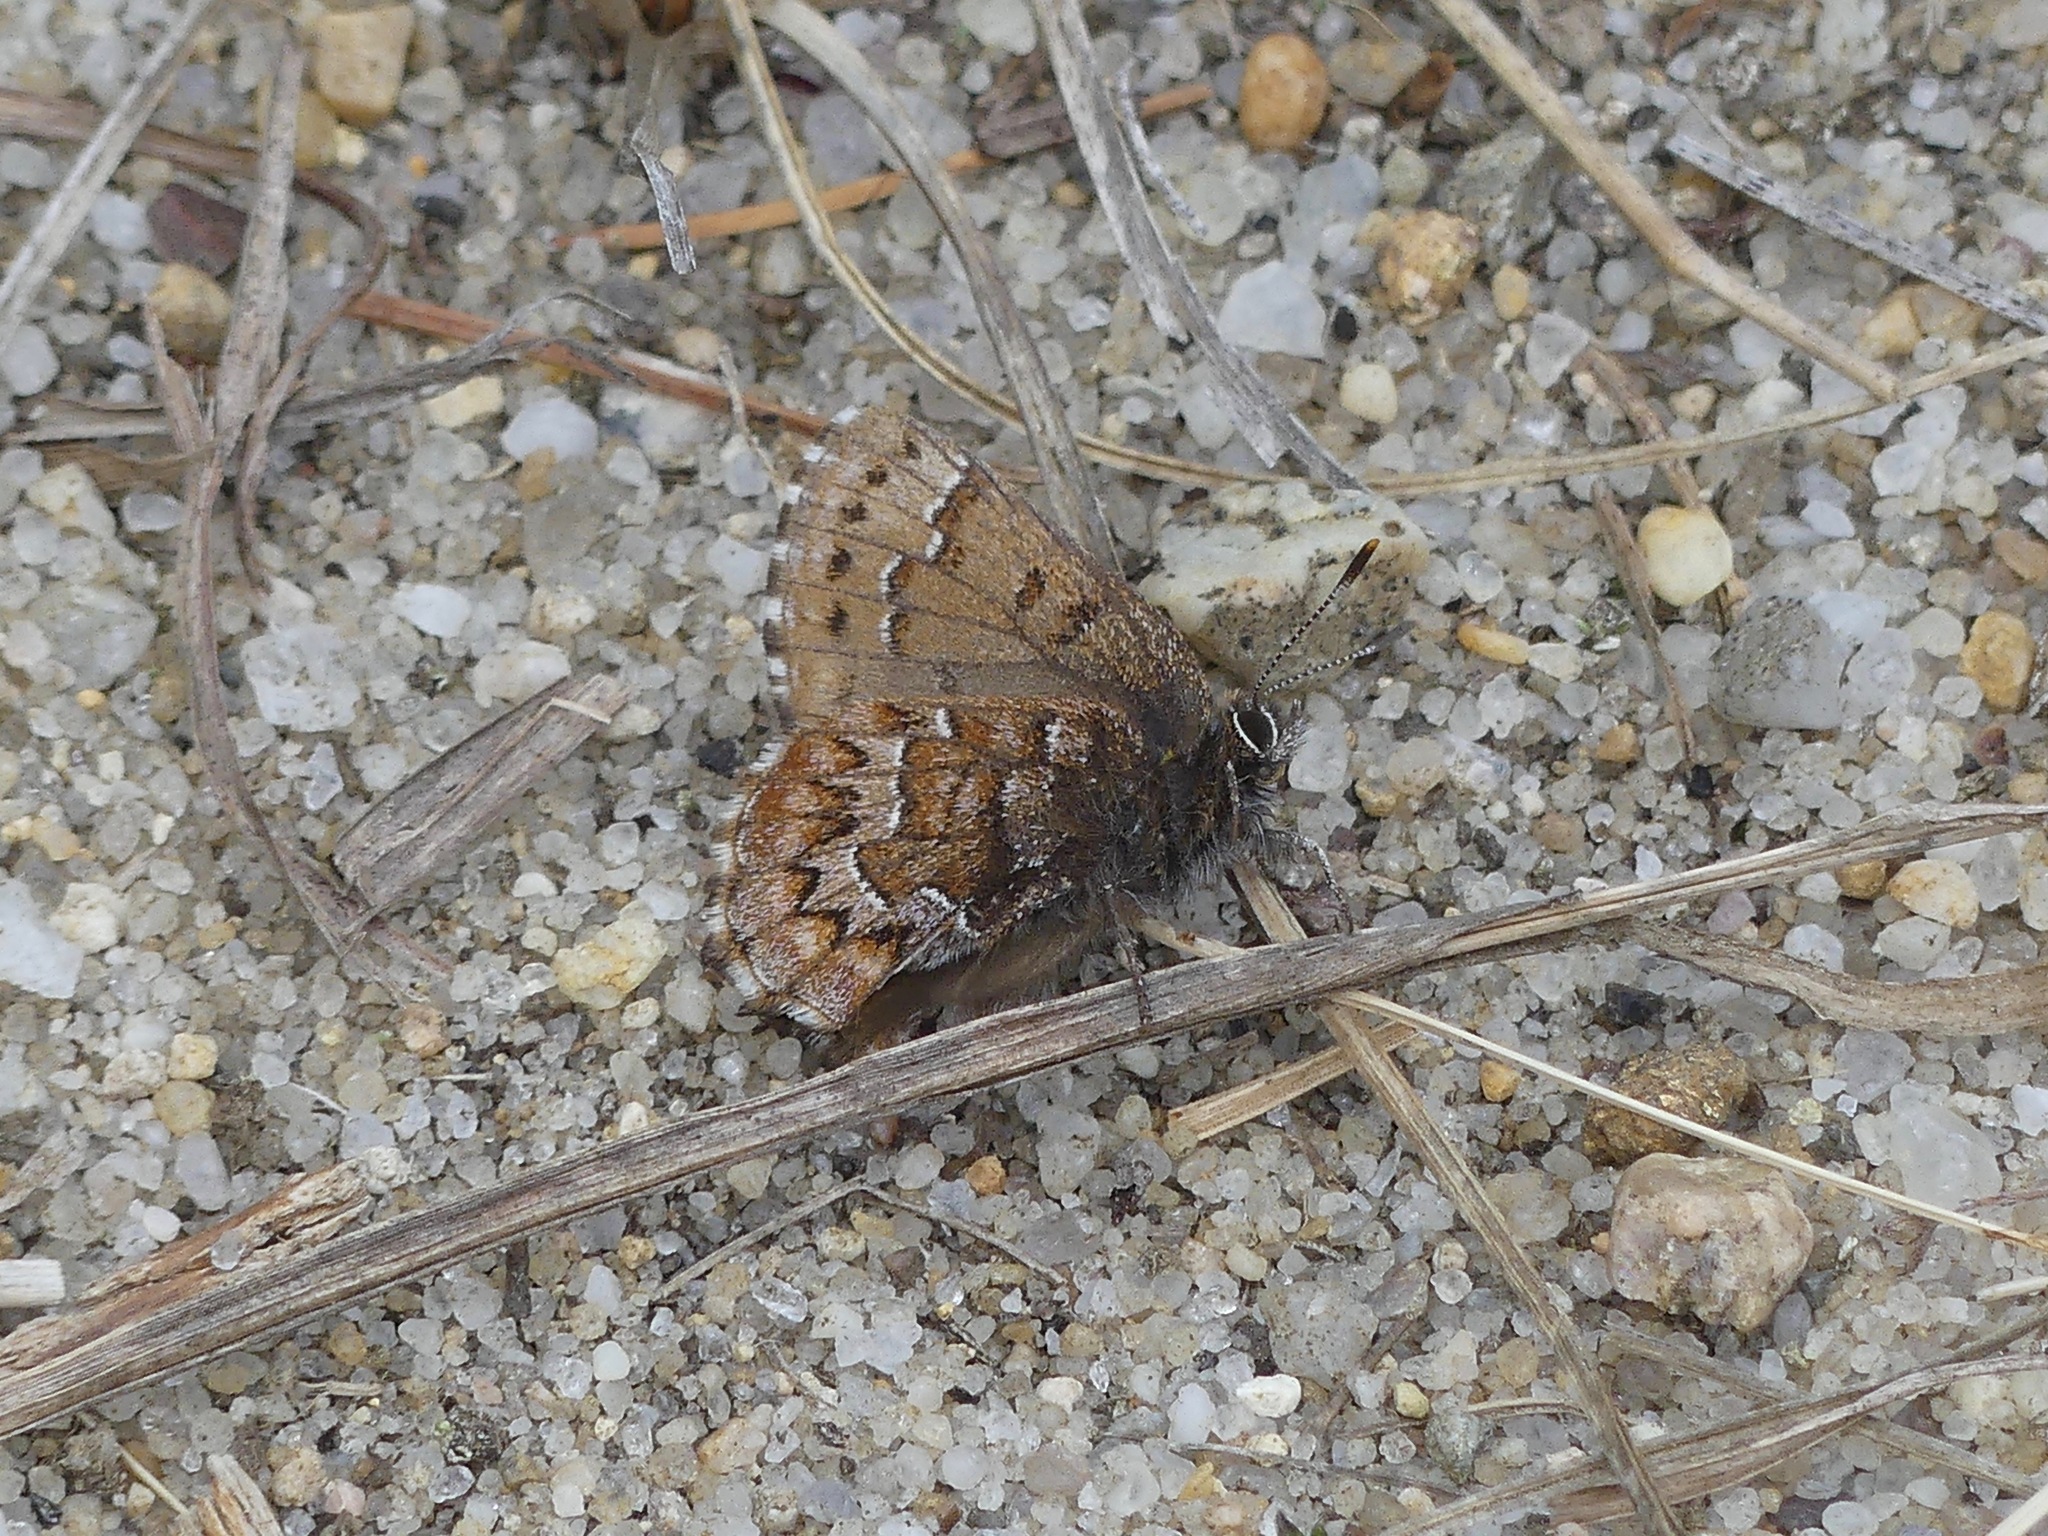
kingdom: Animalia
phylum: Arthropoda
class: Insecta
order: Lepidoptera
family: Lycaenidae
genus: Incisalia
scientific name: Incisalia niphon
